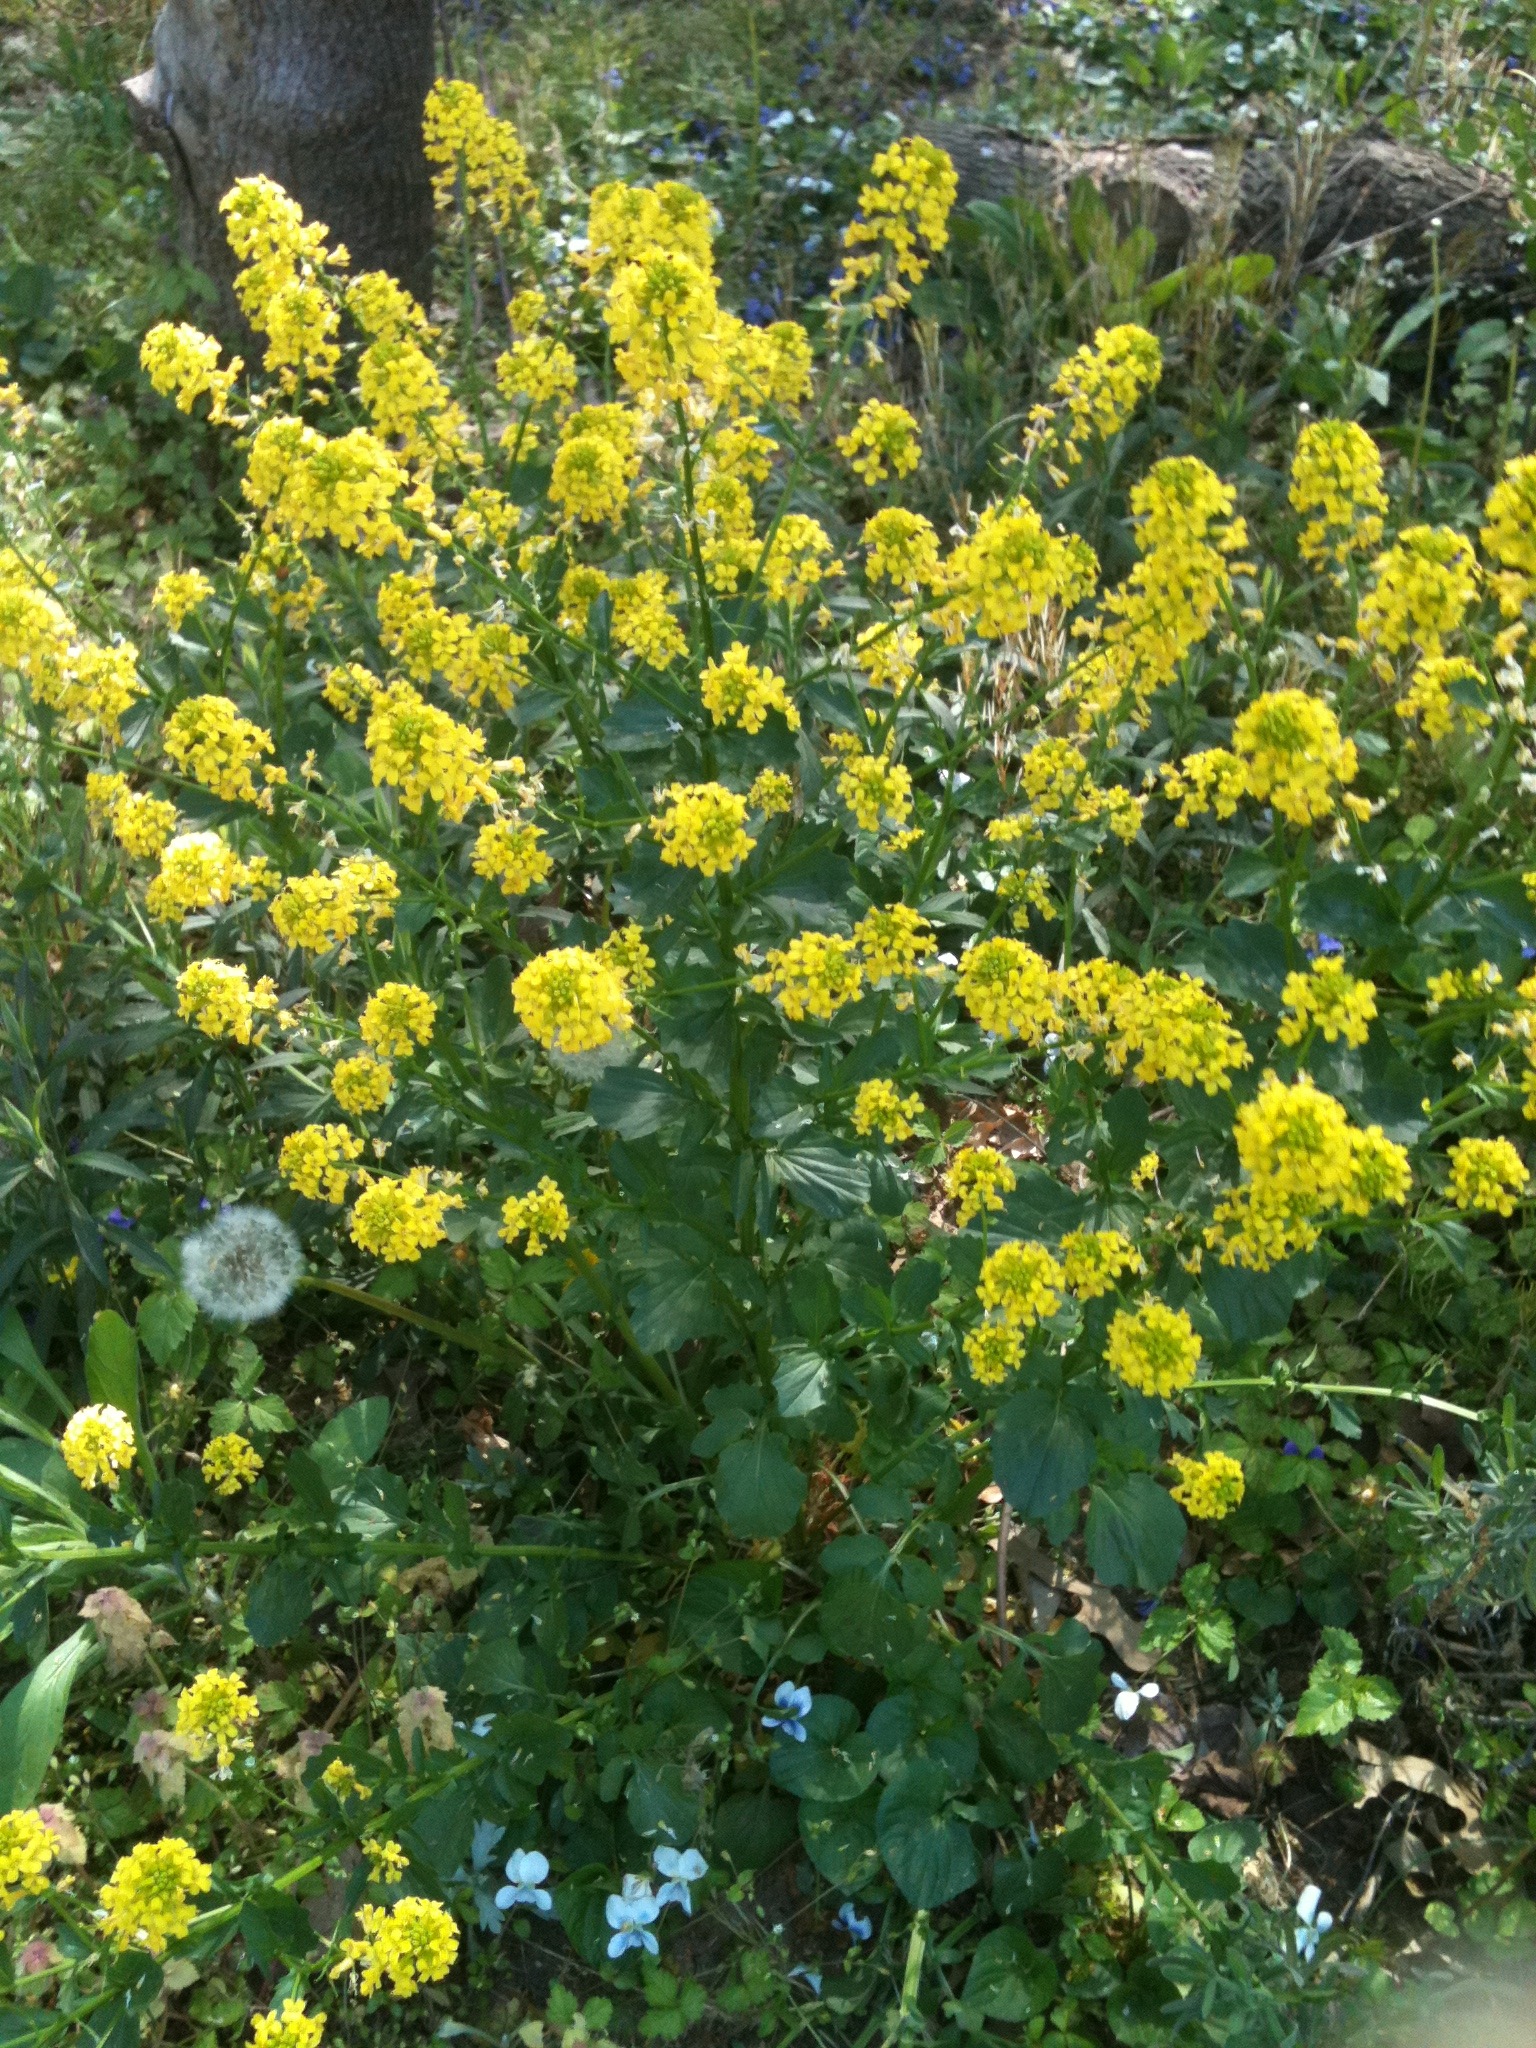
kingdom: Plantae
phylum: Tracheophyta
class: Magnoliopsida
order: Brassicales
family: Brassicaceae
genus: Barbarea
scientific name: Barbarea vulgaris
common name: Cressy-greens
